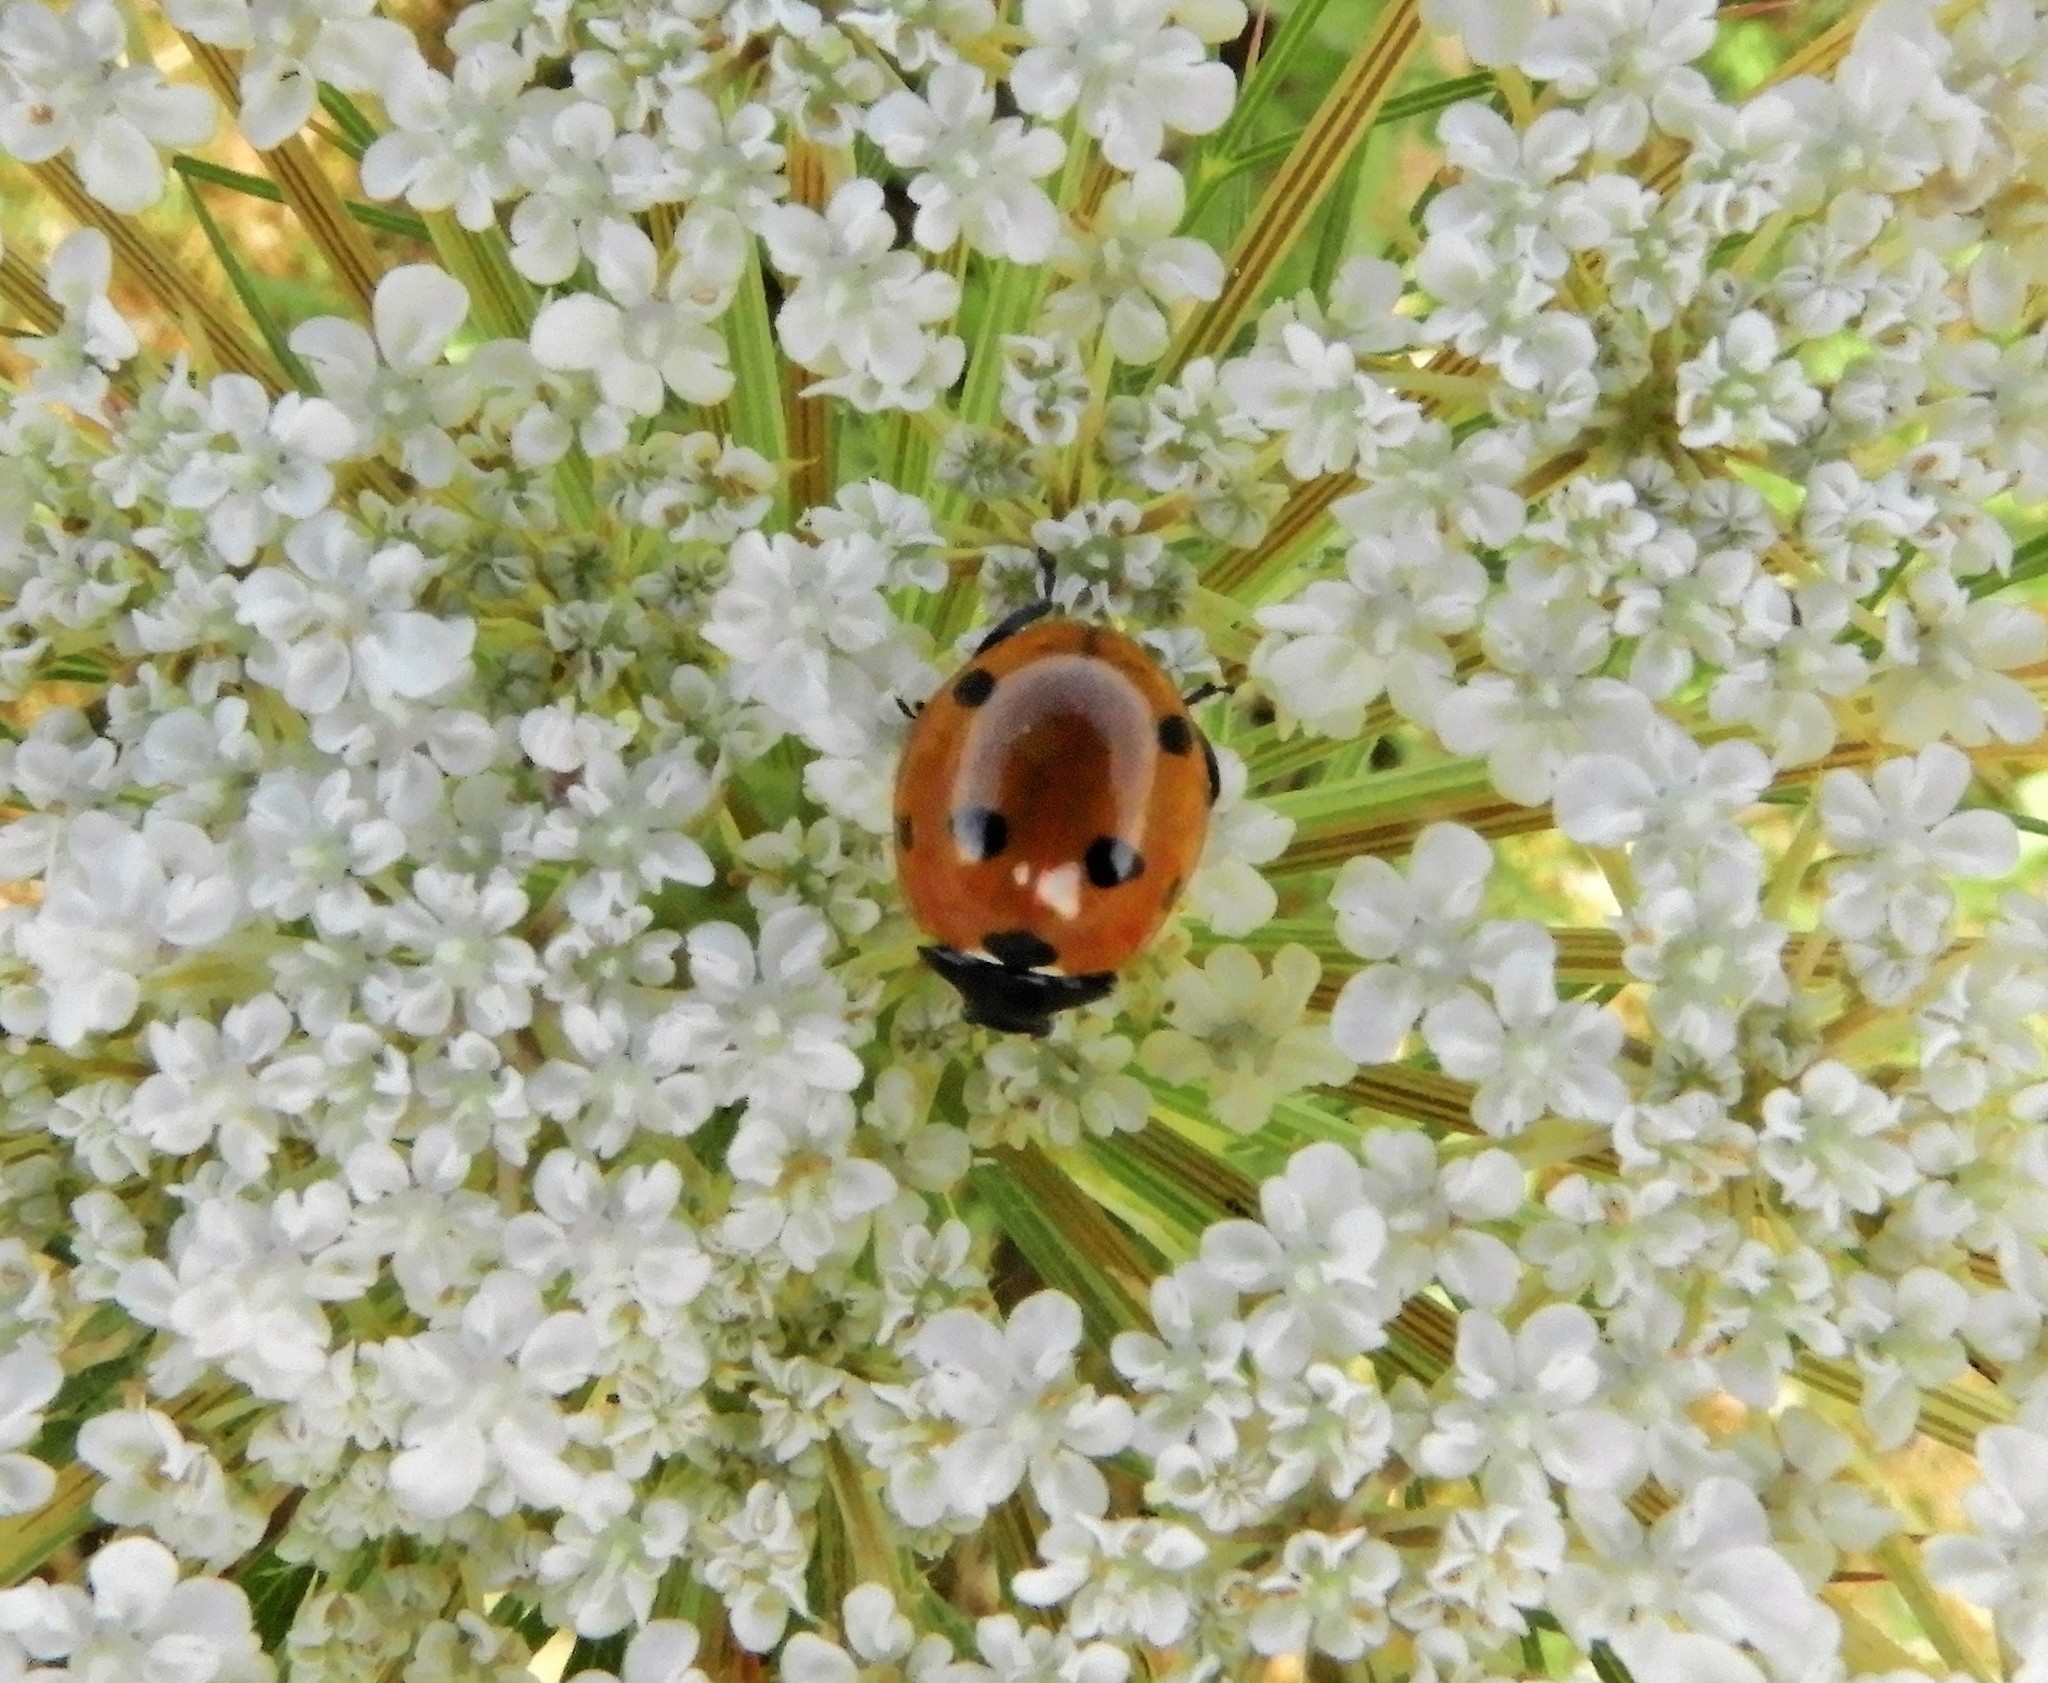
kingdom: Animalia
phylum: Arthropoda
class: Insecta
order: Coleoptera
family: Coccinellidae
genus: Coccinella
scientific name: Coccinella septempunctata
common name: Sevenspotted lady beetle
